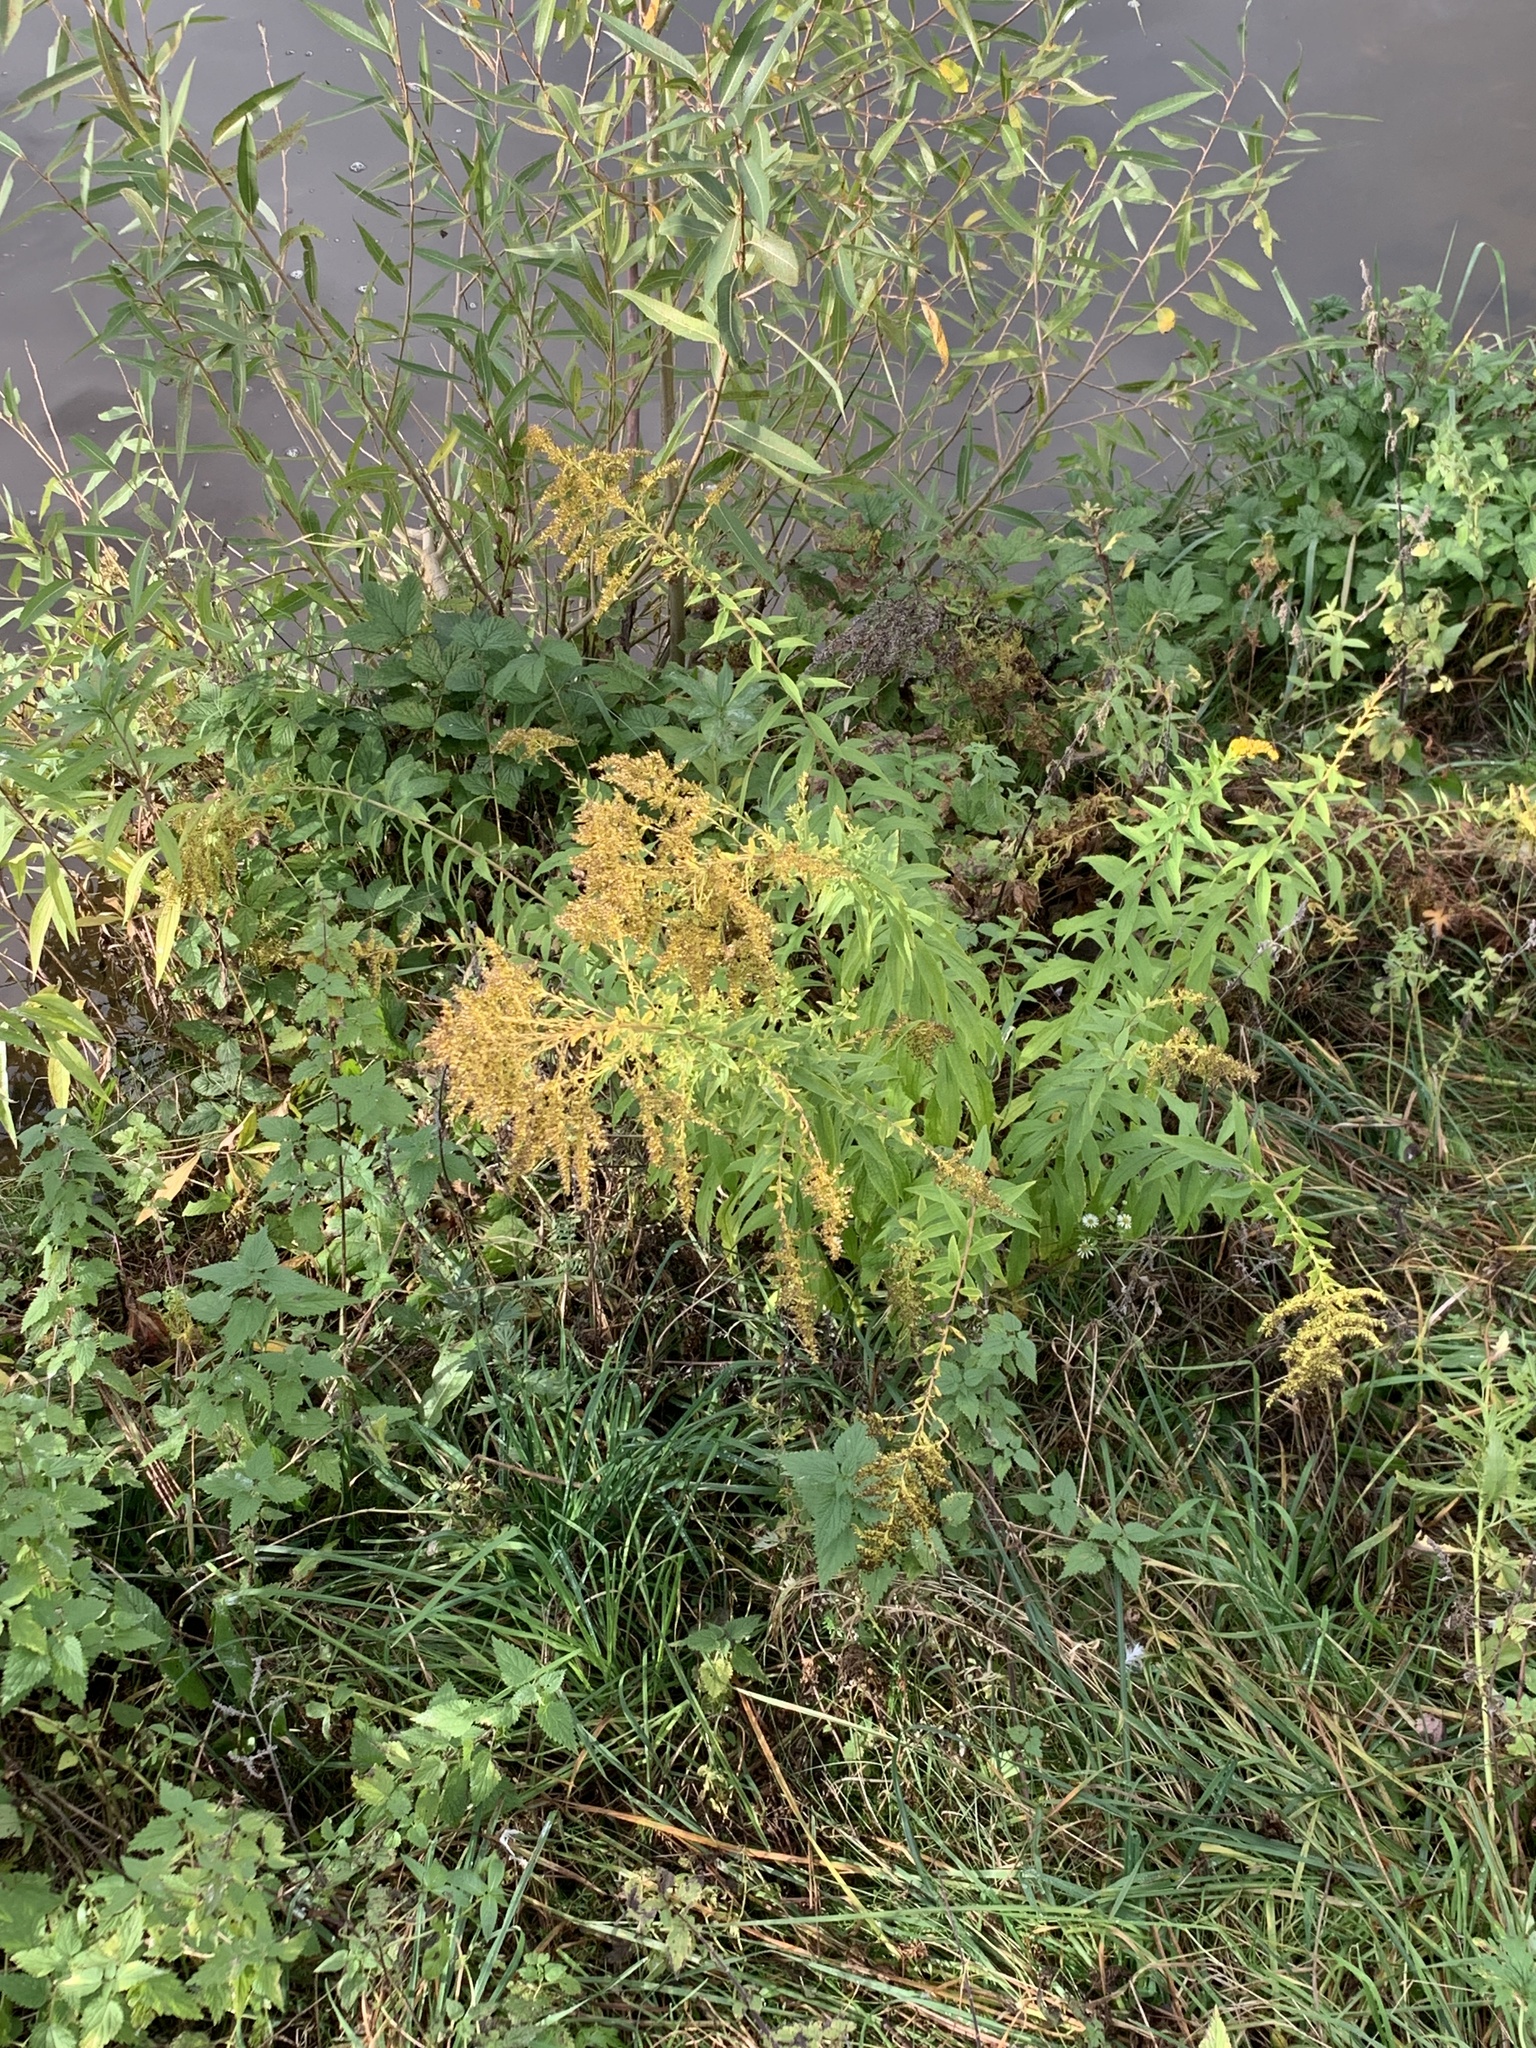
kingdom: Plantae
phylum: Tracheophyta
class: Magnoliopsida
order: Asterales
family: Asteraceae
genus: Solidago
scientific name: Solidago canadensis
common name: Canada goldenrod
